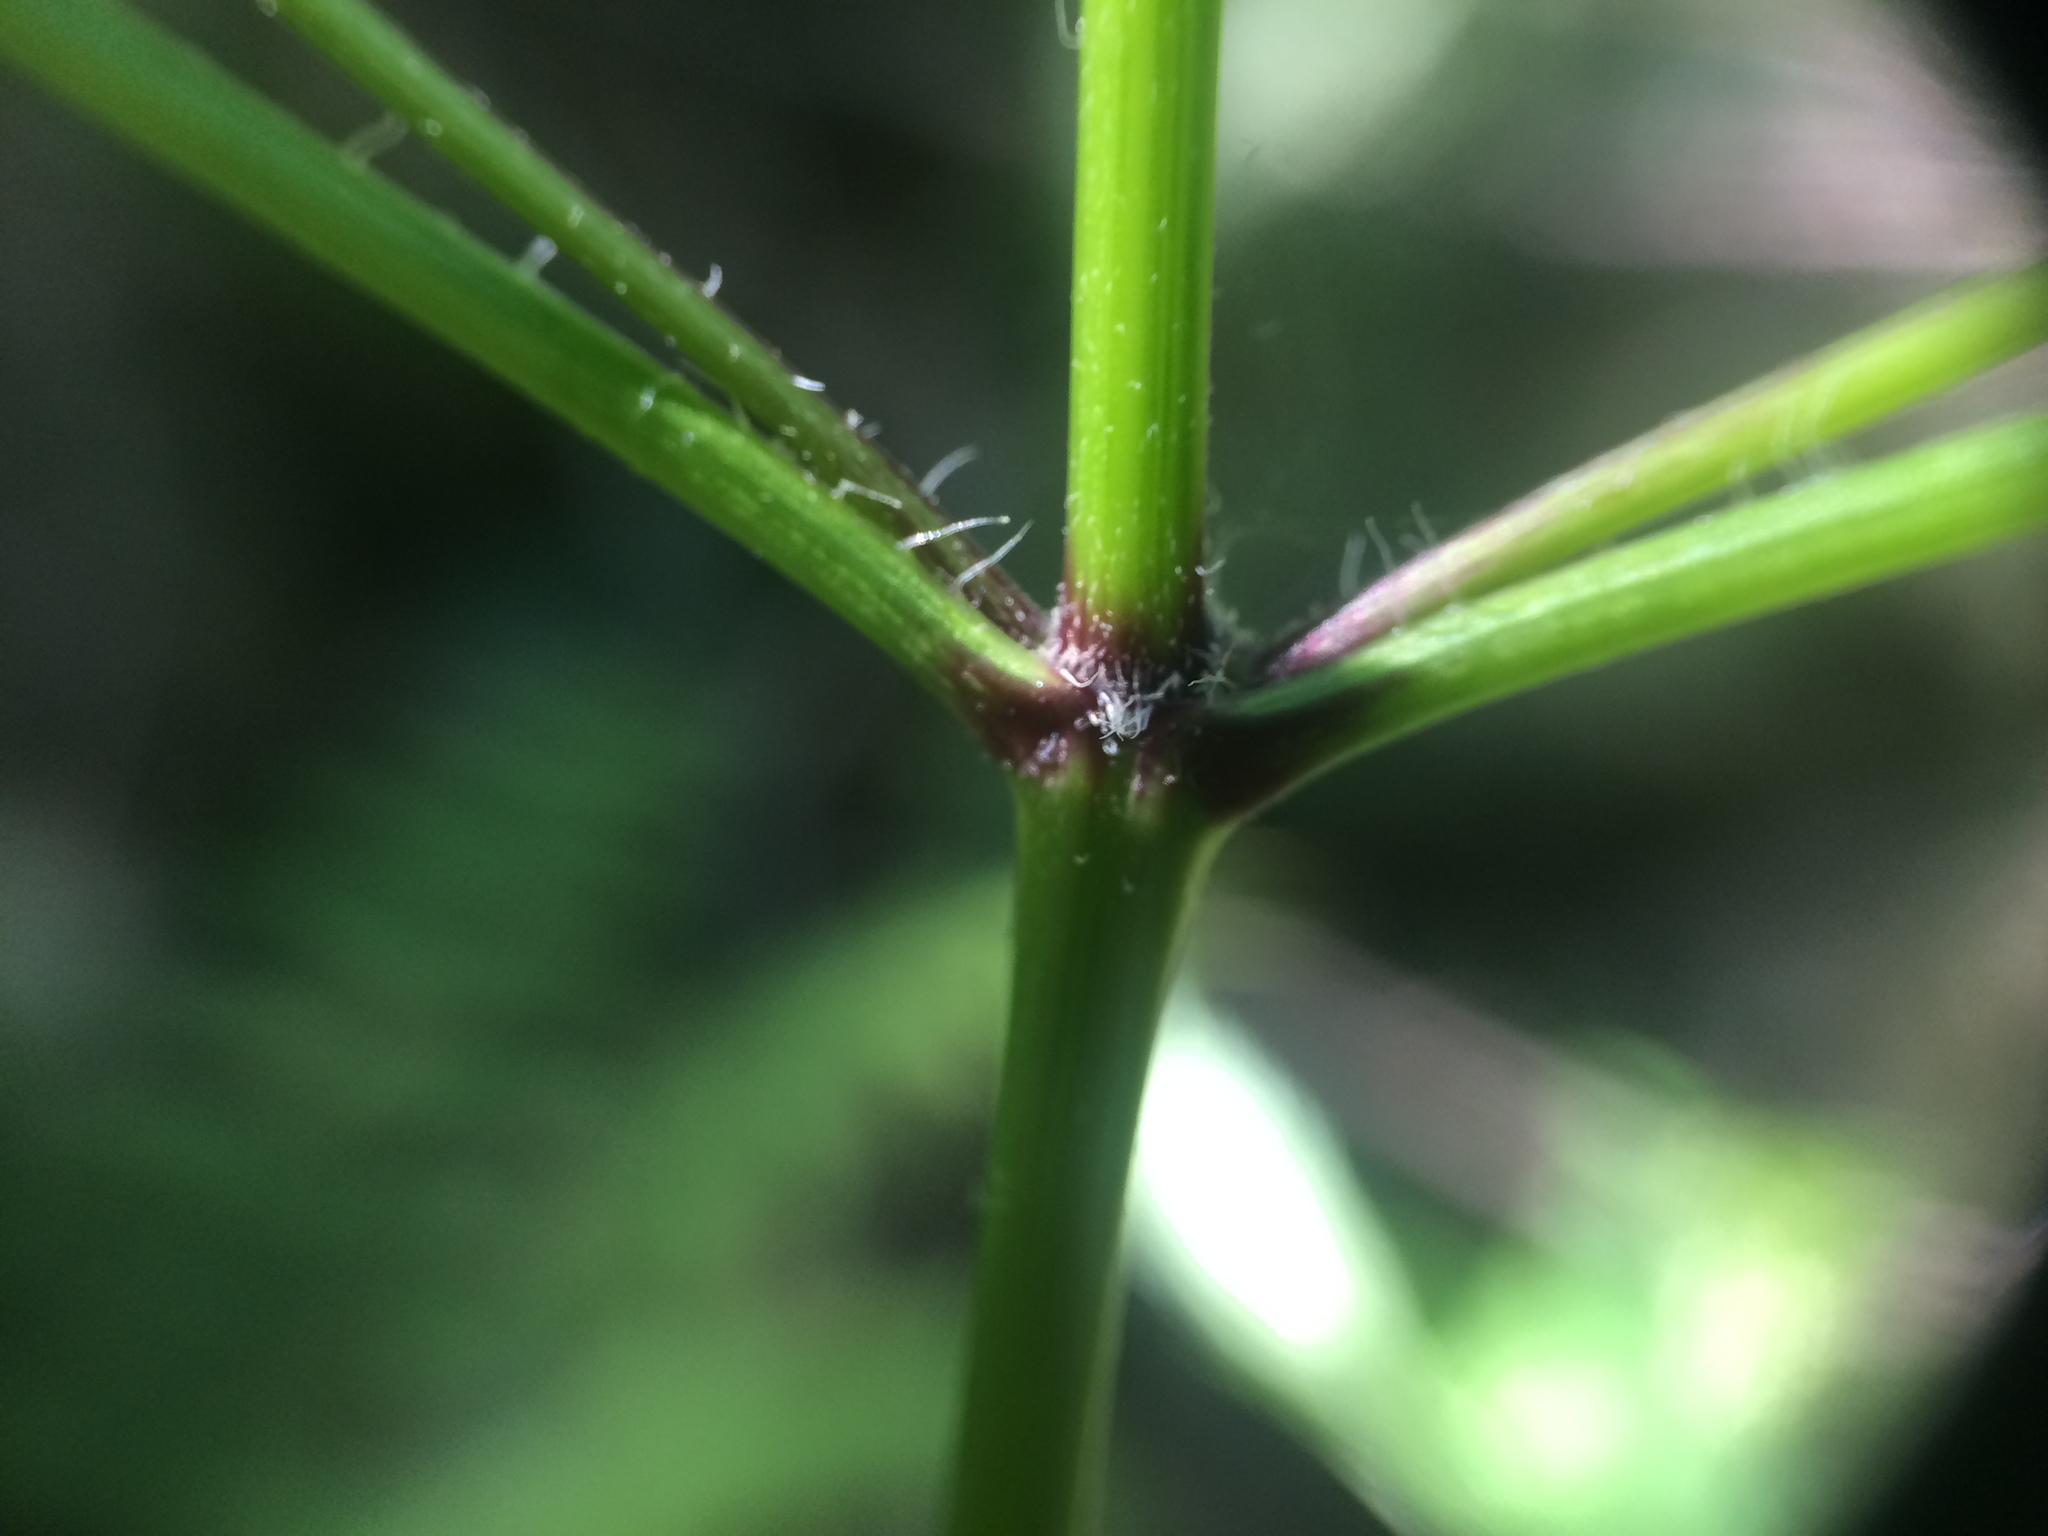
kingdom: Plantae
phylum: Tracheophyta
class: Magnoliopsida
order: Asterales
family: Asteraceae
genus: Bidens
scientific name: Bidens frondosa
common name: Beggarticks
